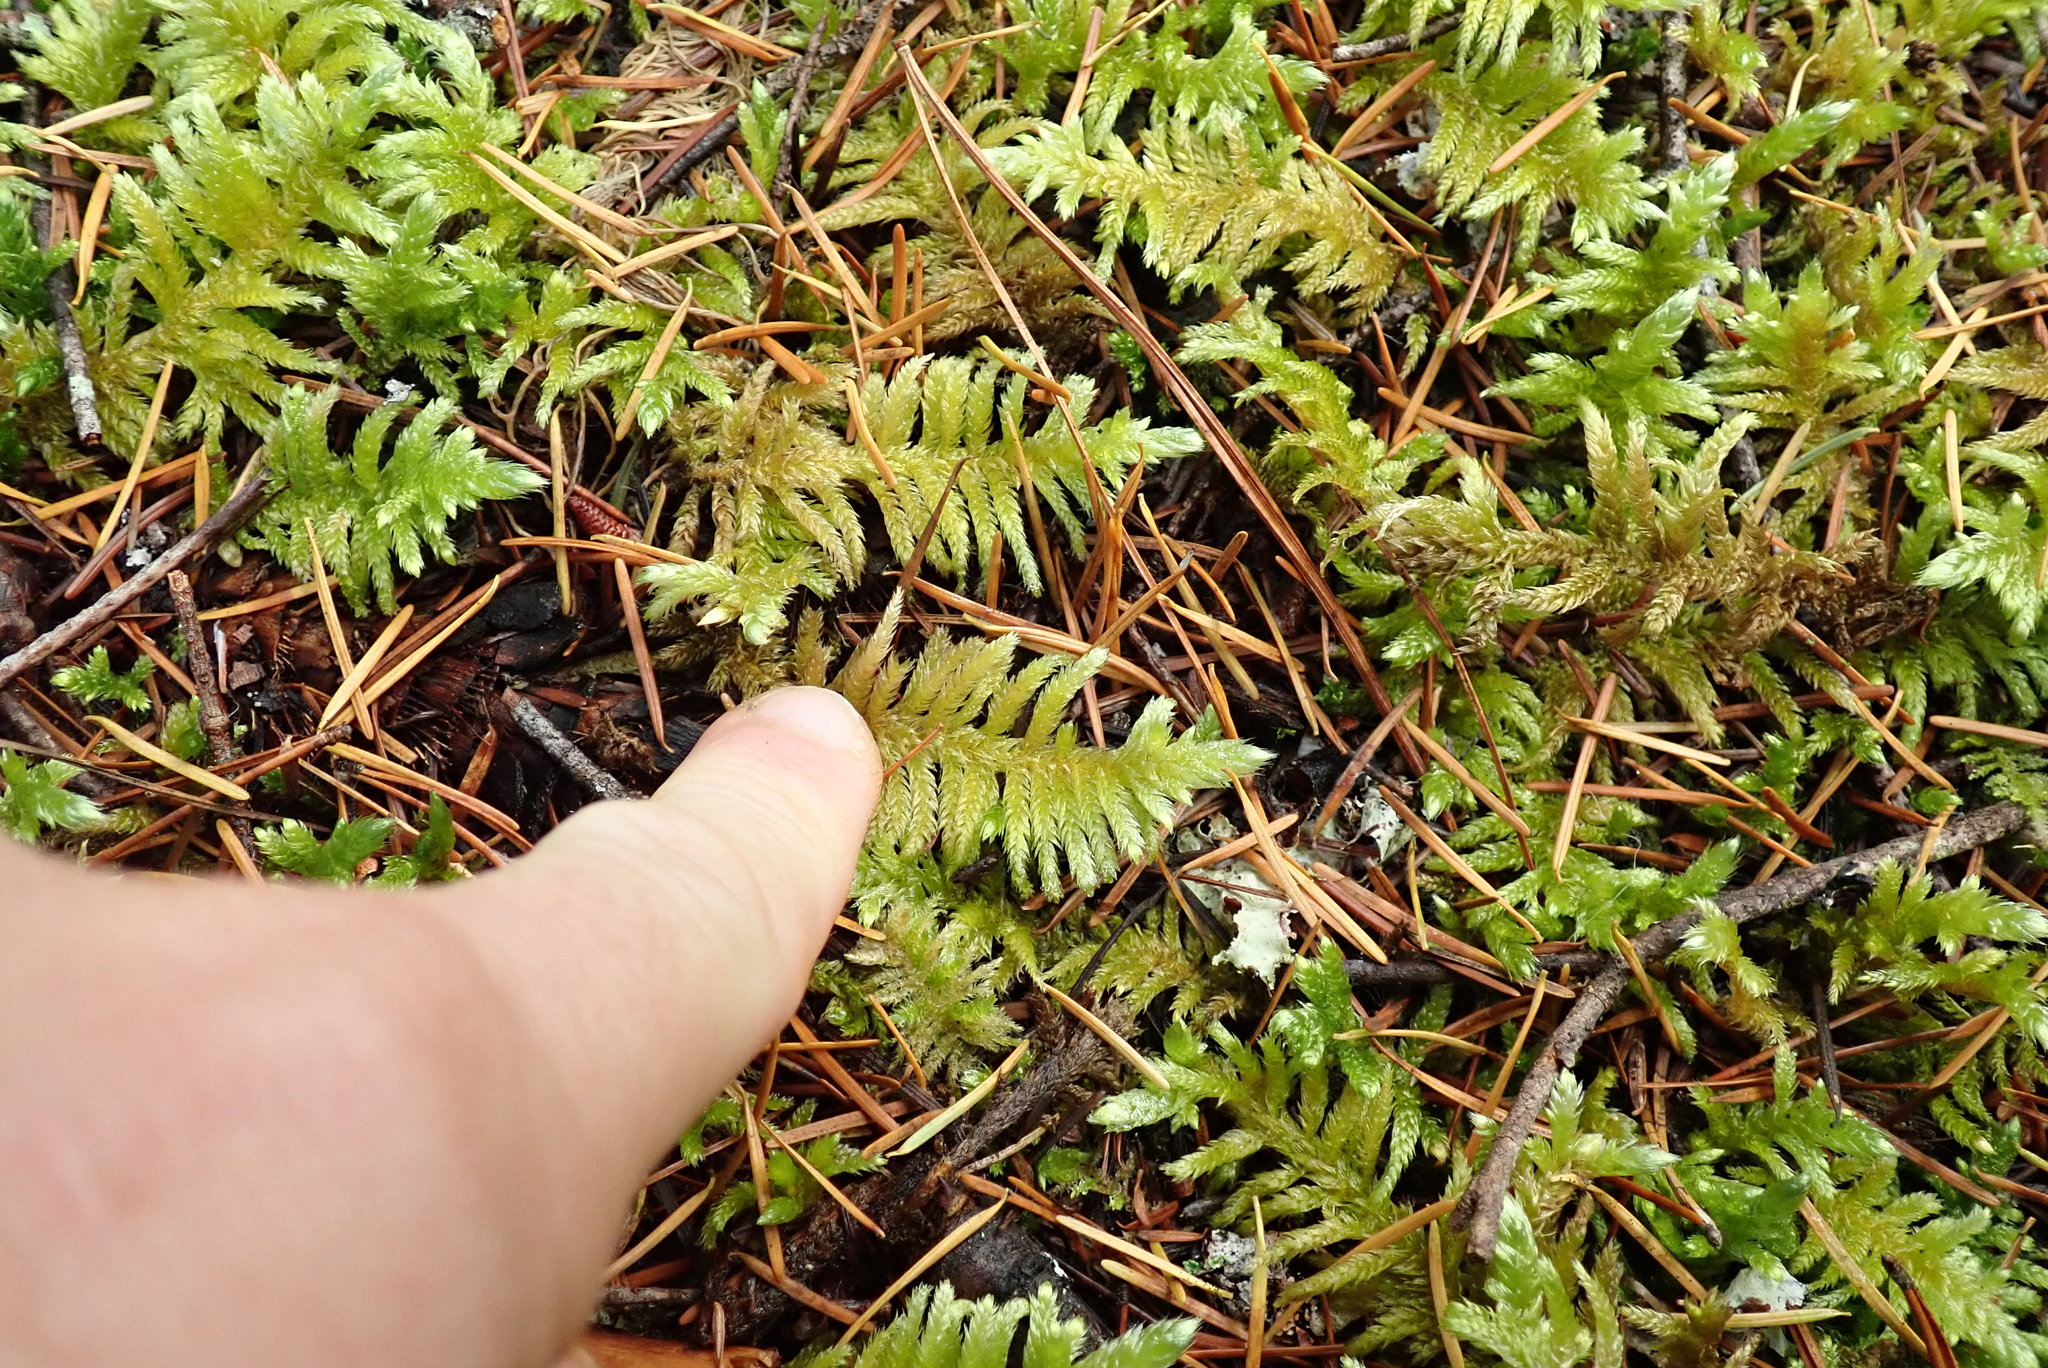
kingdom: Plantae
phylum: Bryophyta
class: Bryopsida
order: Hypnales
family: Brachytheciaceae
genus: Homalothecium
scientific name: Homalothecium megaptilum
